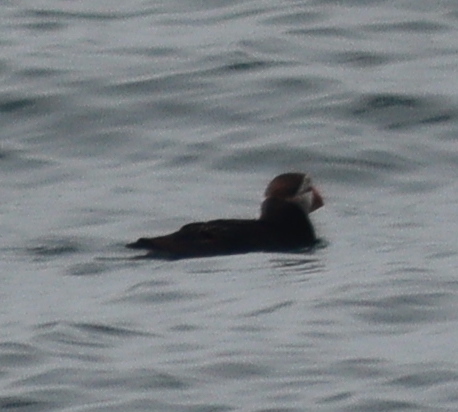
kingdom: Animalia
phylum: Chordata
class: Aves
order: Charadriiformes
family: Alcidae
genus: Fratercula
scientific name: Fratercula arctica
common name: Atlantic puffin
